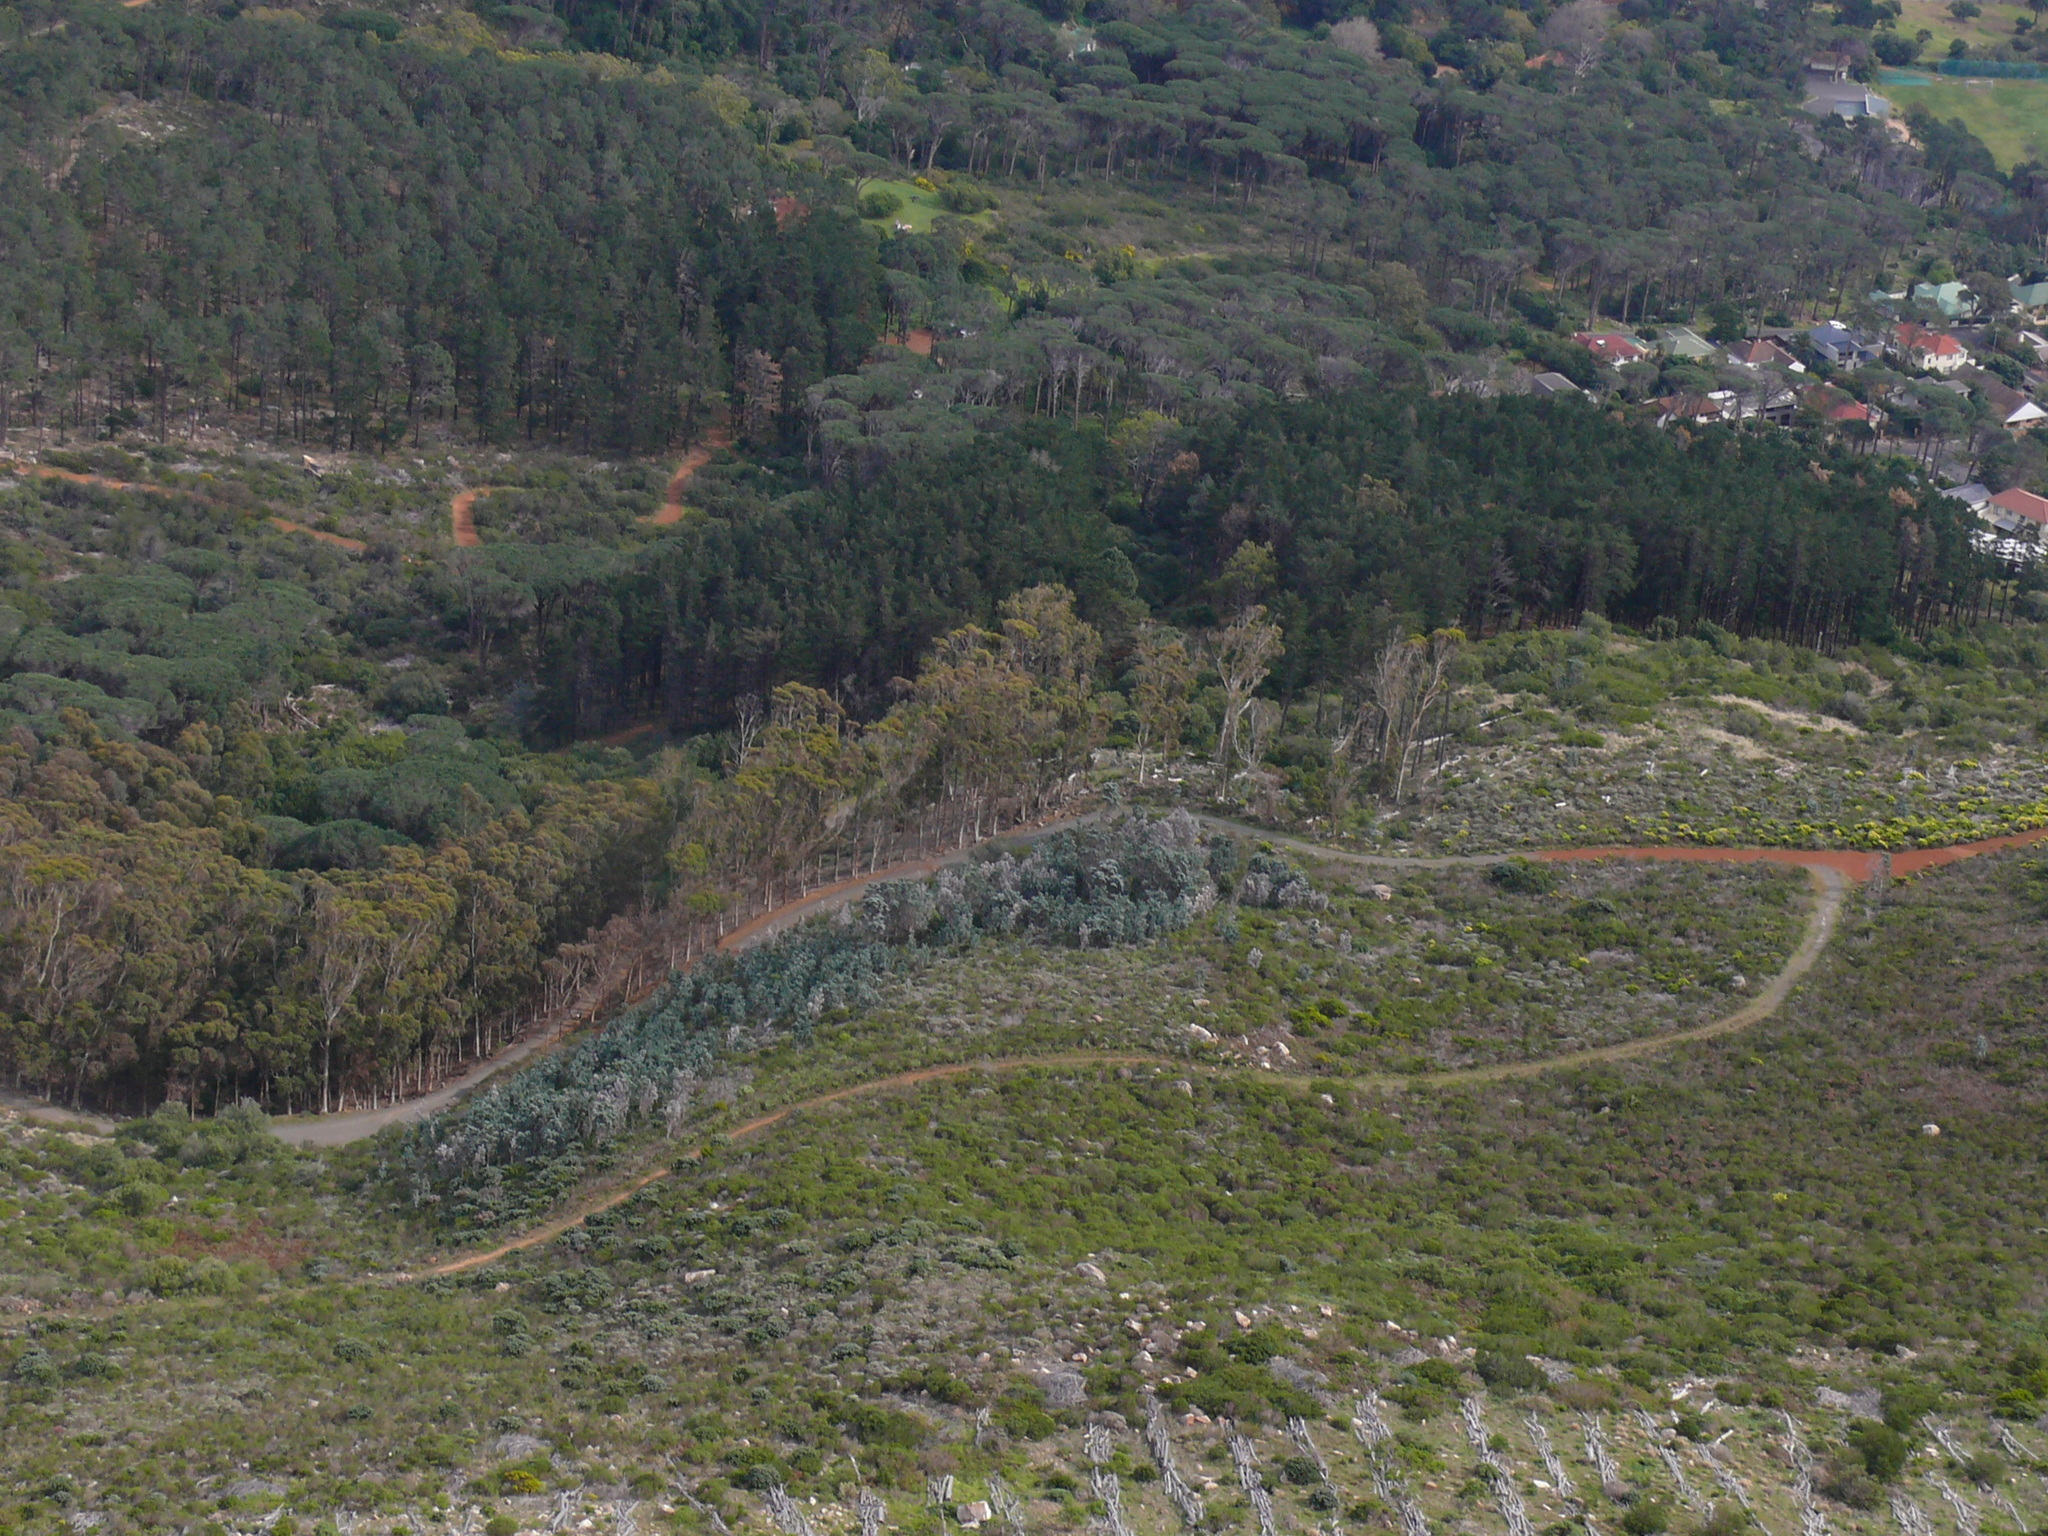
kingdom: Plantae
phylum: Tracheophyta
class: Magnoliopsida
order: Proteales
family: Proteaceae
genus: Leucadendron
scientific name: Leucadendron argenteum
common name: Cape silver tree
